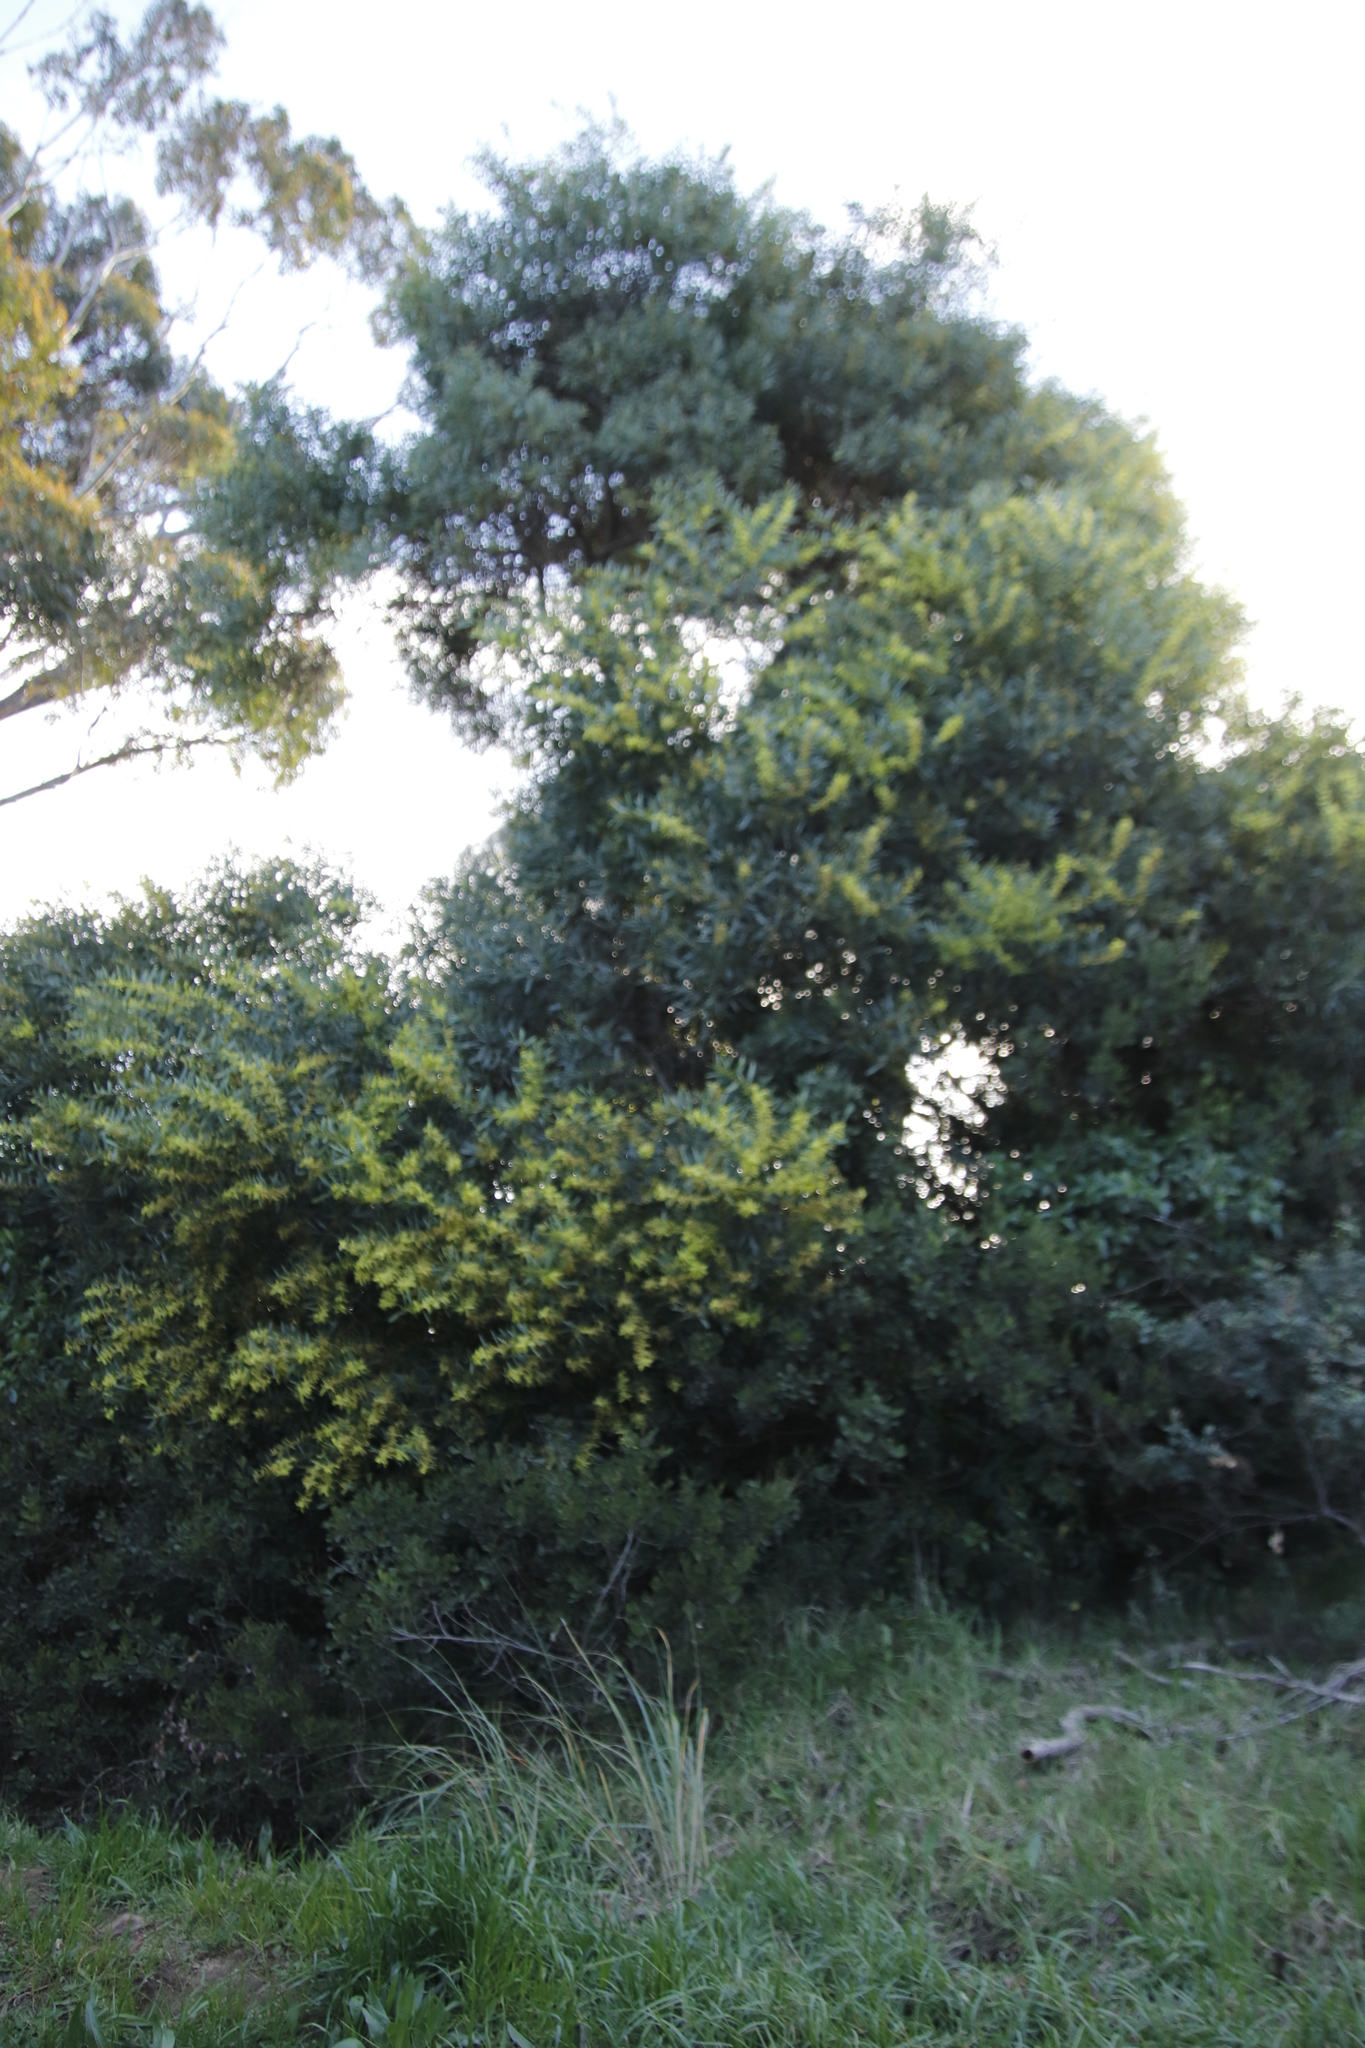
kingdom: Plantae
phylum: Tracheophyta
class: Magnoliopsida
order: Fabales
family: Fabaceae
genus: Acacia
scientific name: Acacia longifolia
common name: Sydney golden wattle
